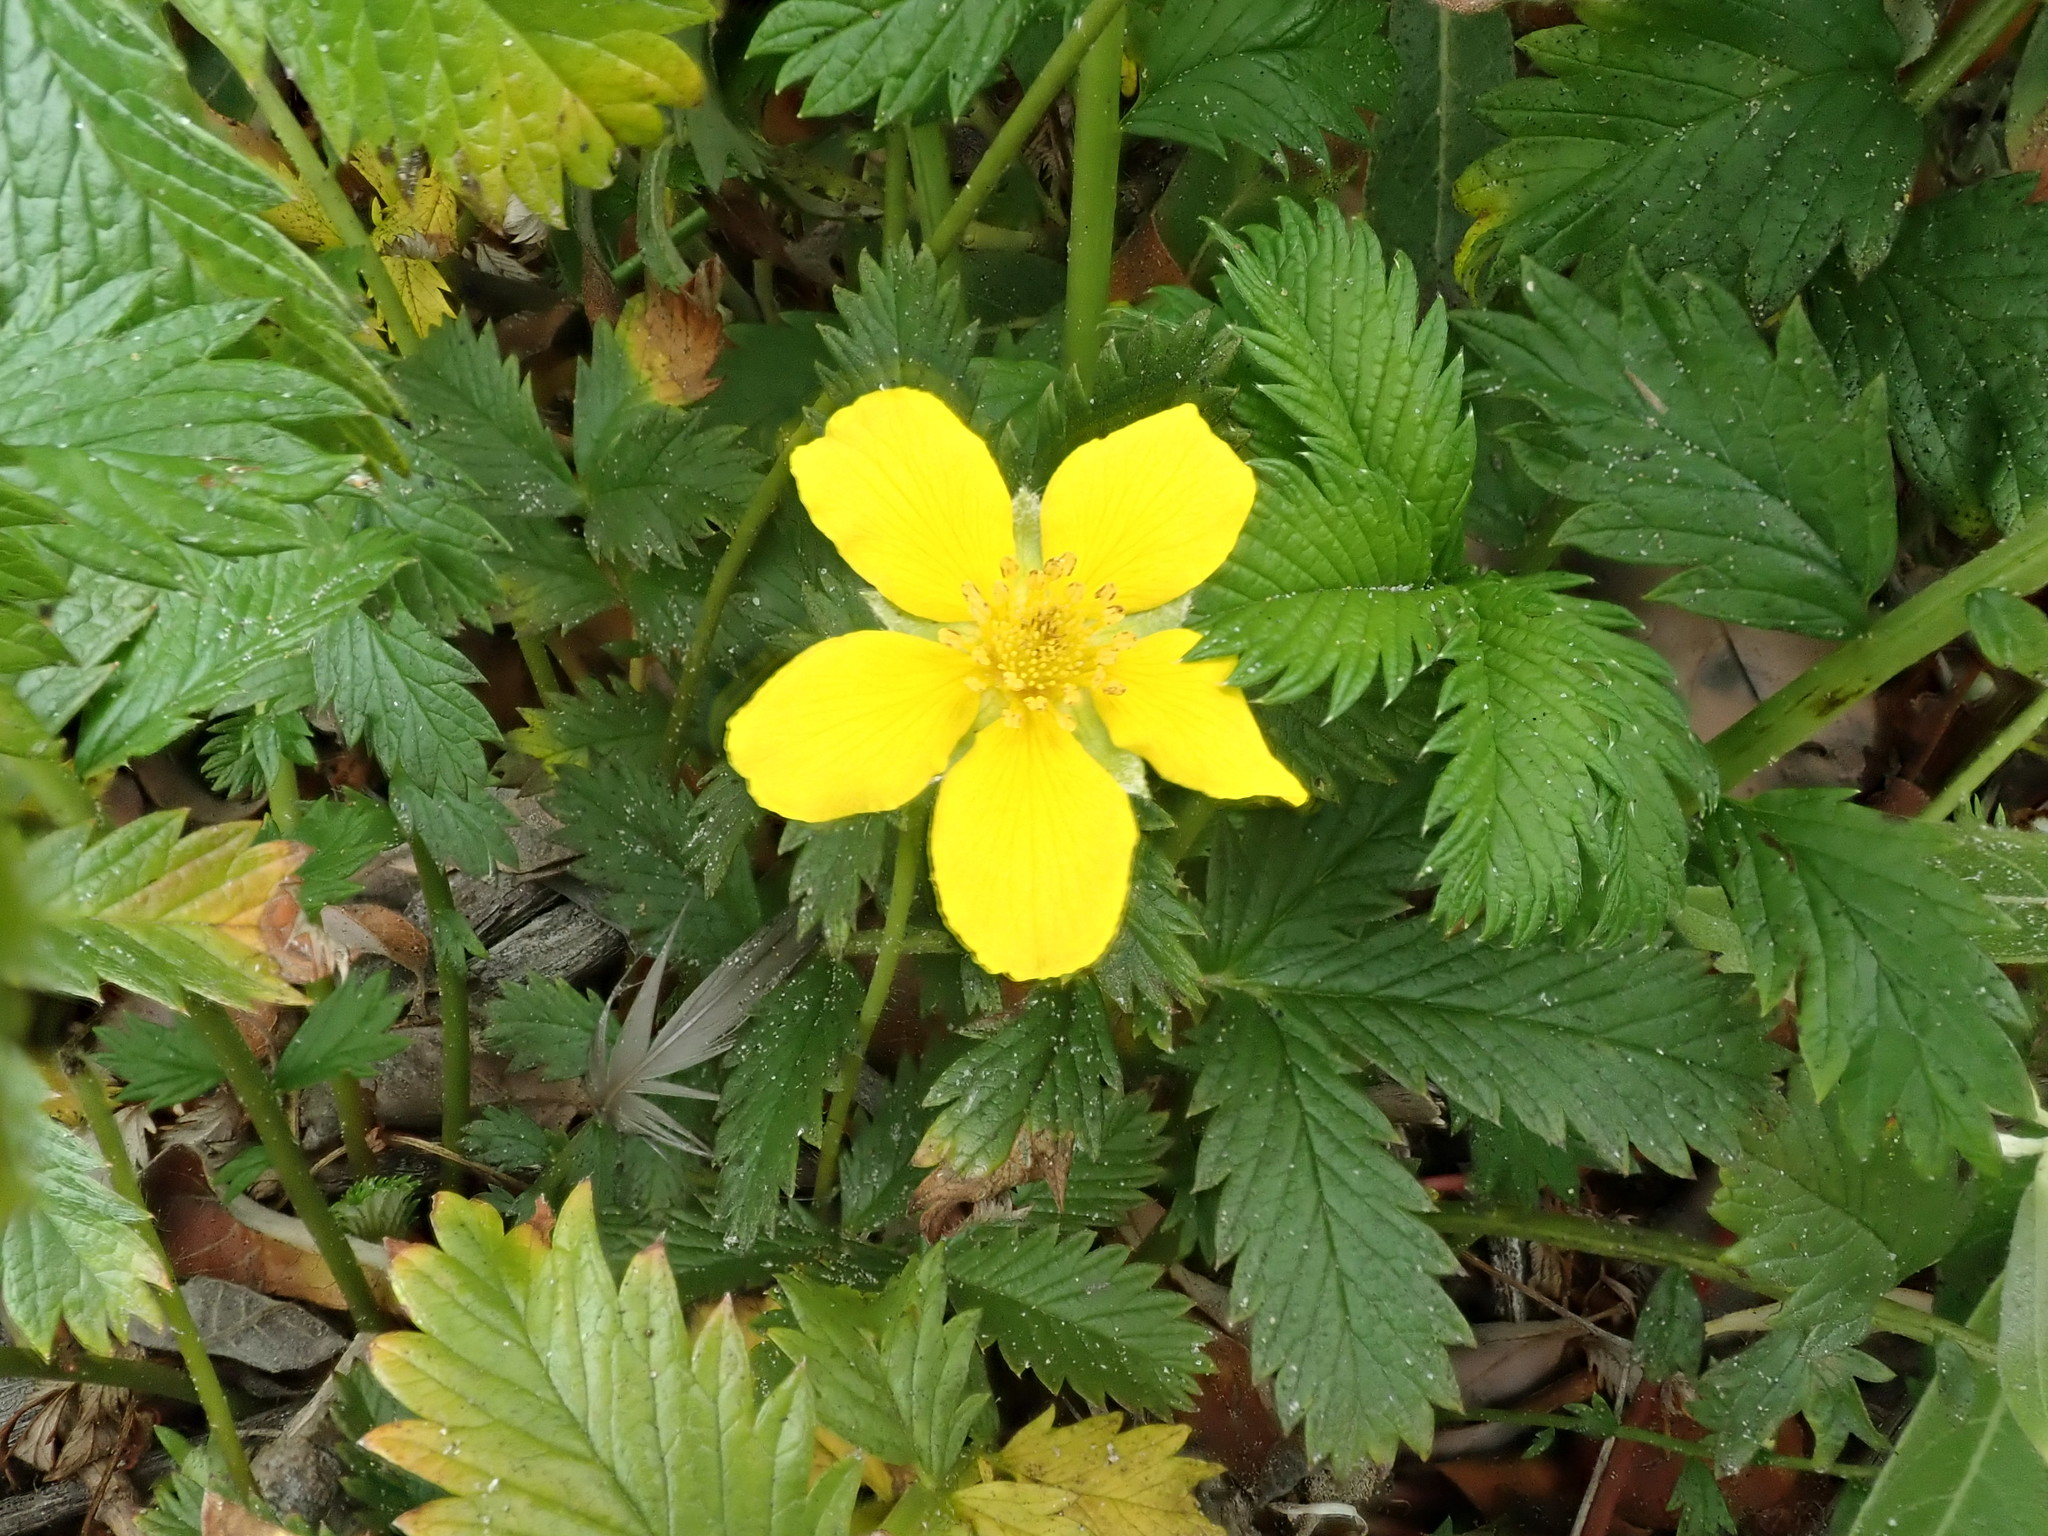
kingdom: Plantae
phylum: Tracheophyta
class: Magnoliopsida
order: Rosales
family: Rosaceae
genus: Argentina
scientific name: Argentina anserina
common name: Common silverweed
